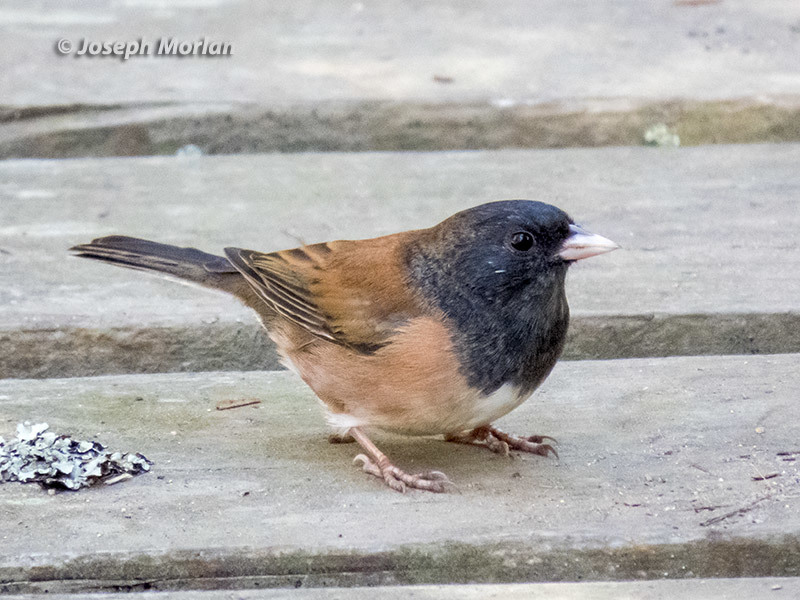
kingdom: Animalia
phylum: Chordata
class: Aves
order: Passeriformes
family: Passerellidae
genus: Junco
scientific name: Junco hyemalis
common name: Dark-eyed junco
